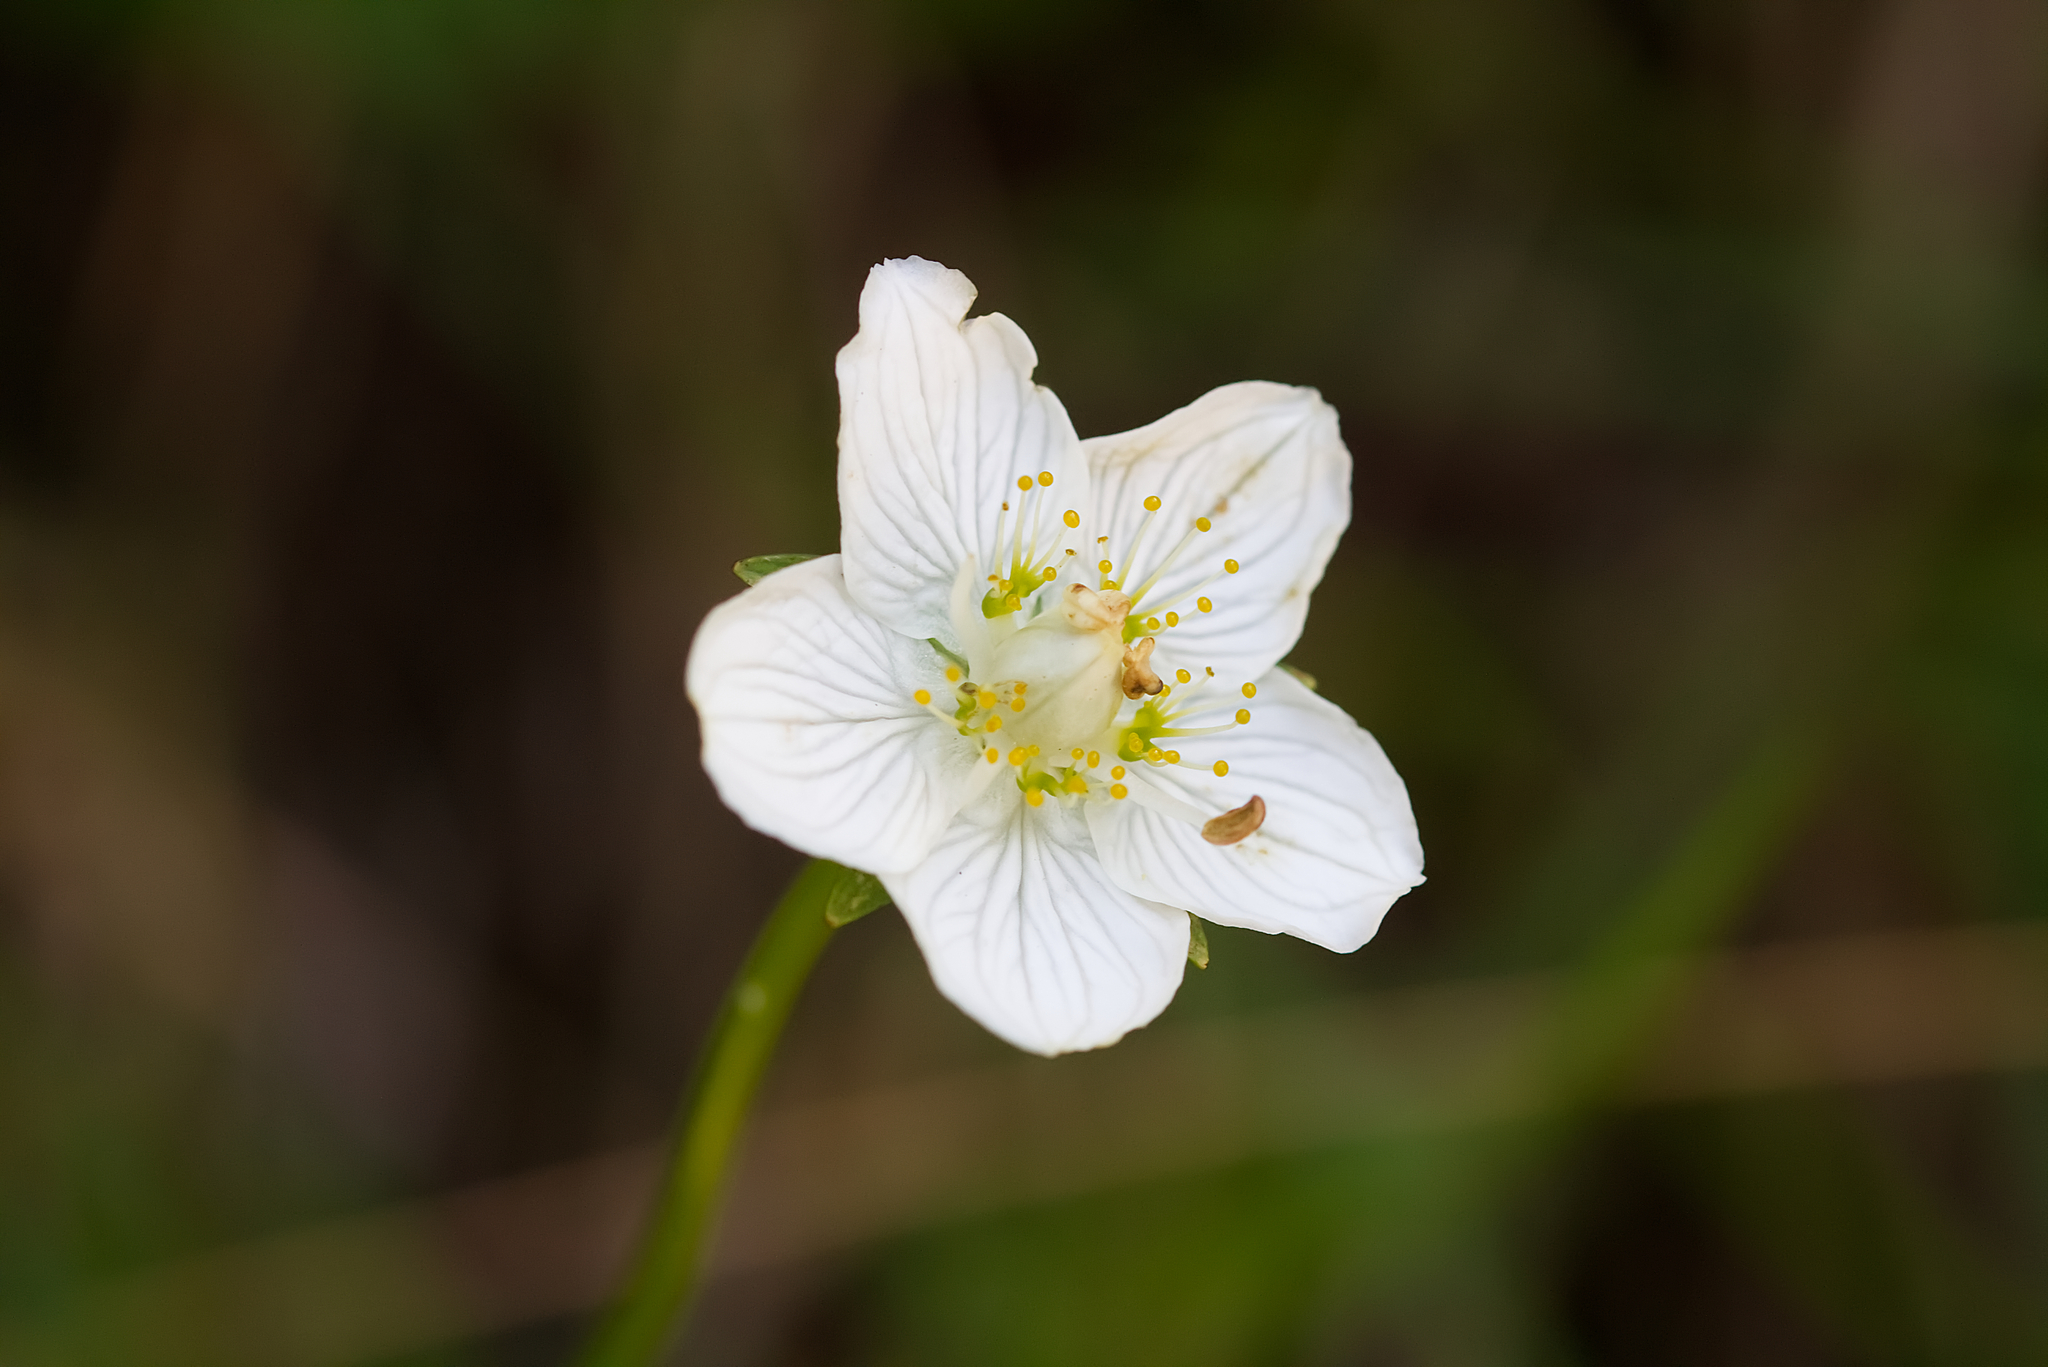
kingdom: Plantae
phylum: Tracheophyta
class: Magnoliopsida
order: Celastrales
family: Parnassiaceae
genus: Parnassia
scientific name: Parnassia palustris
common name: Grass-of-parnassus
